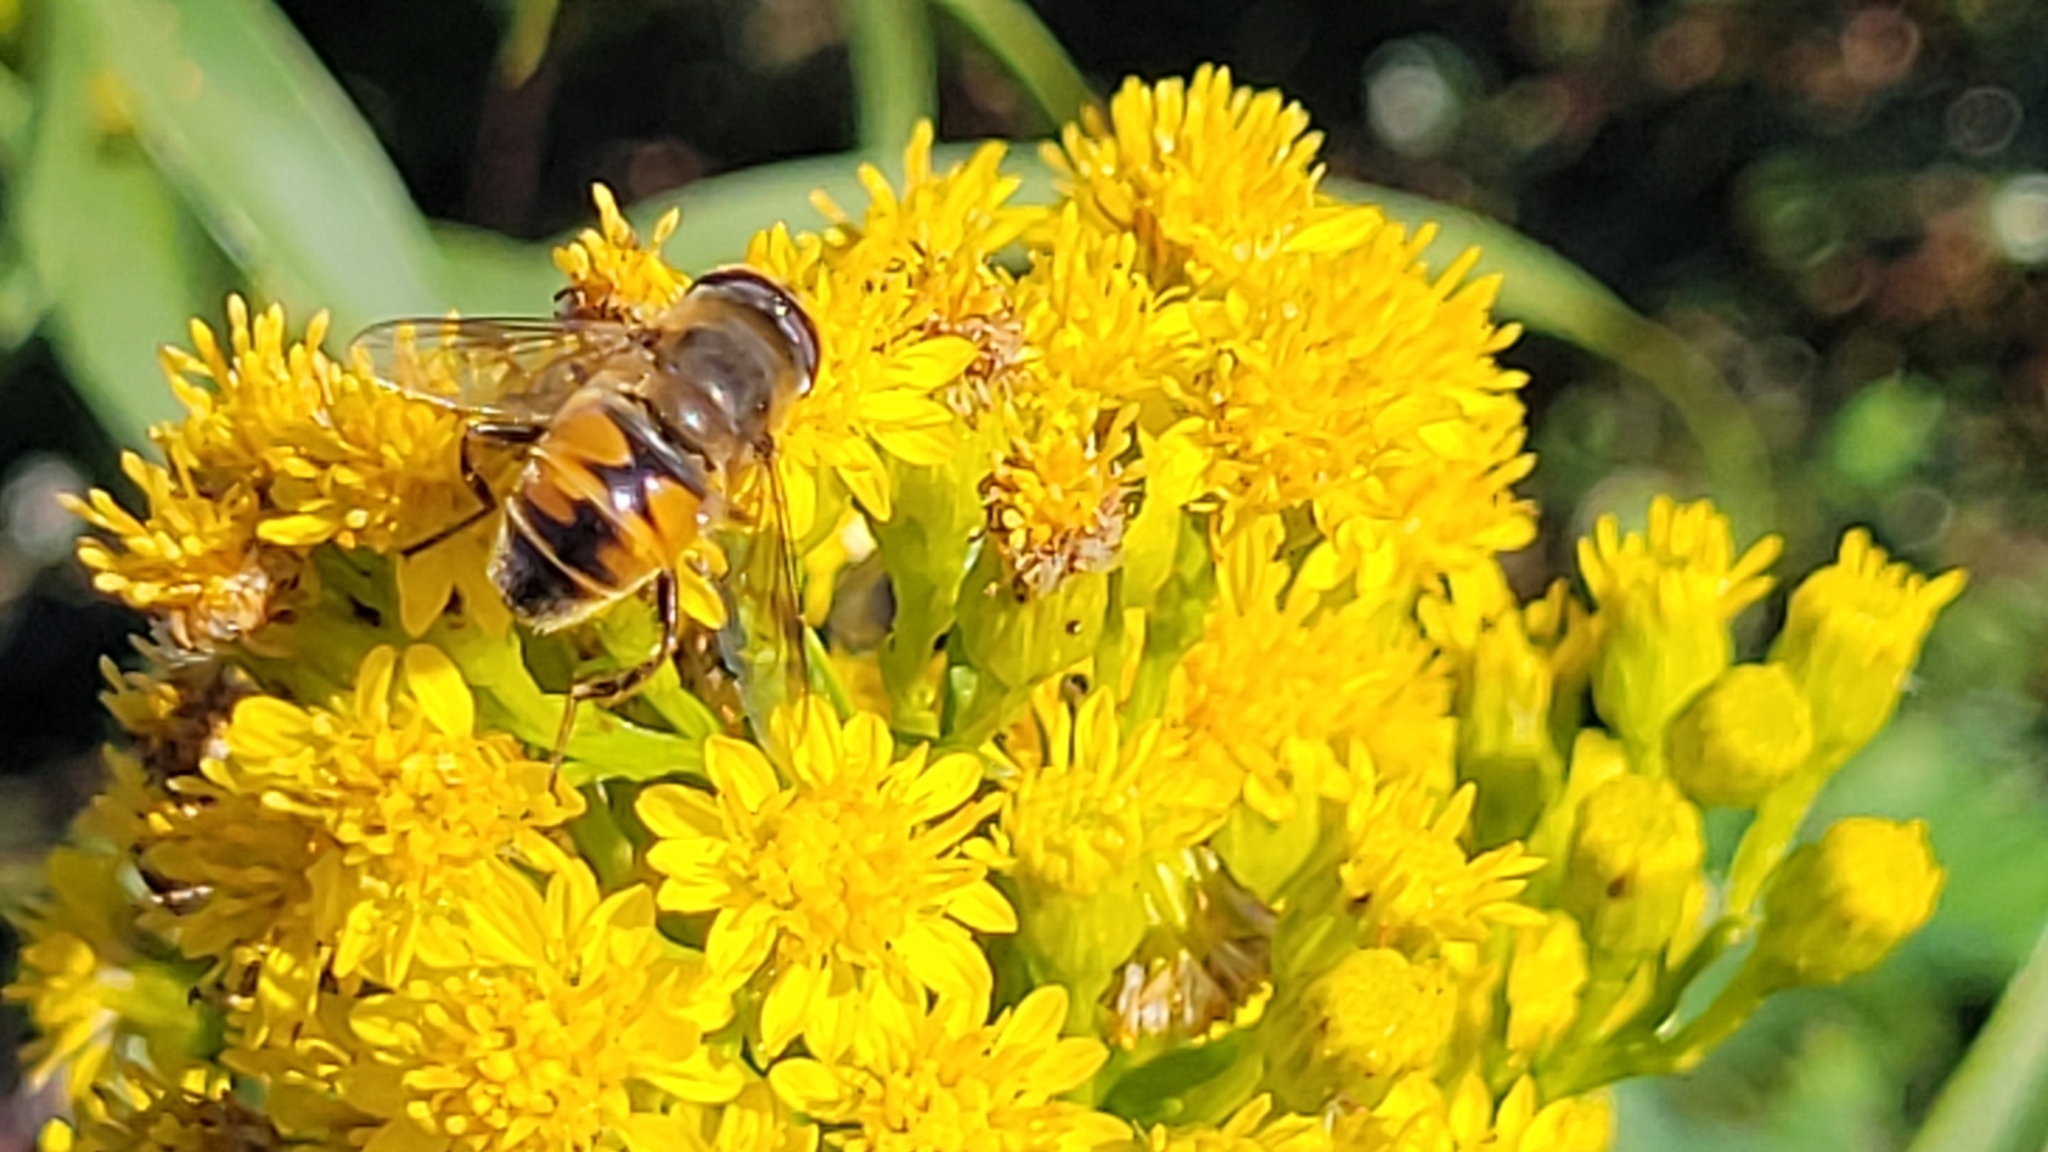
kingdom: Animalia
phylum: Arthropoda
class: Insecta
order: Diptera
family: Syrphidae
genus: Eristalis
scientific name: Eristalis tenax
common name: Drone fly
